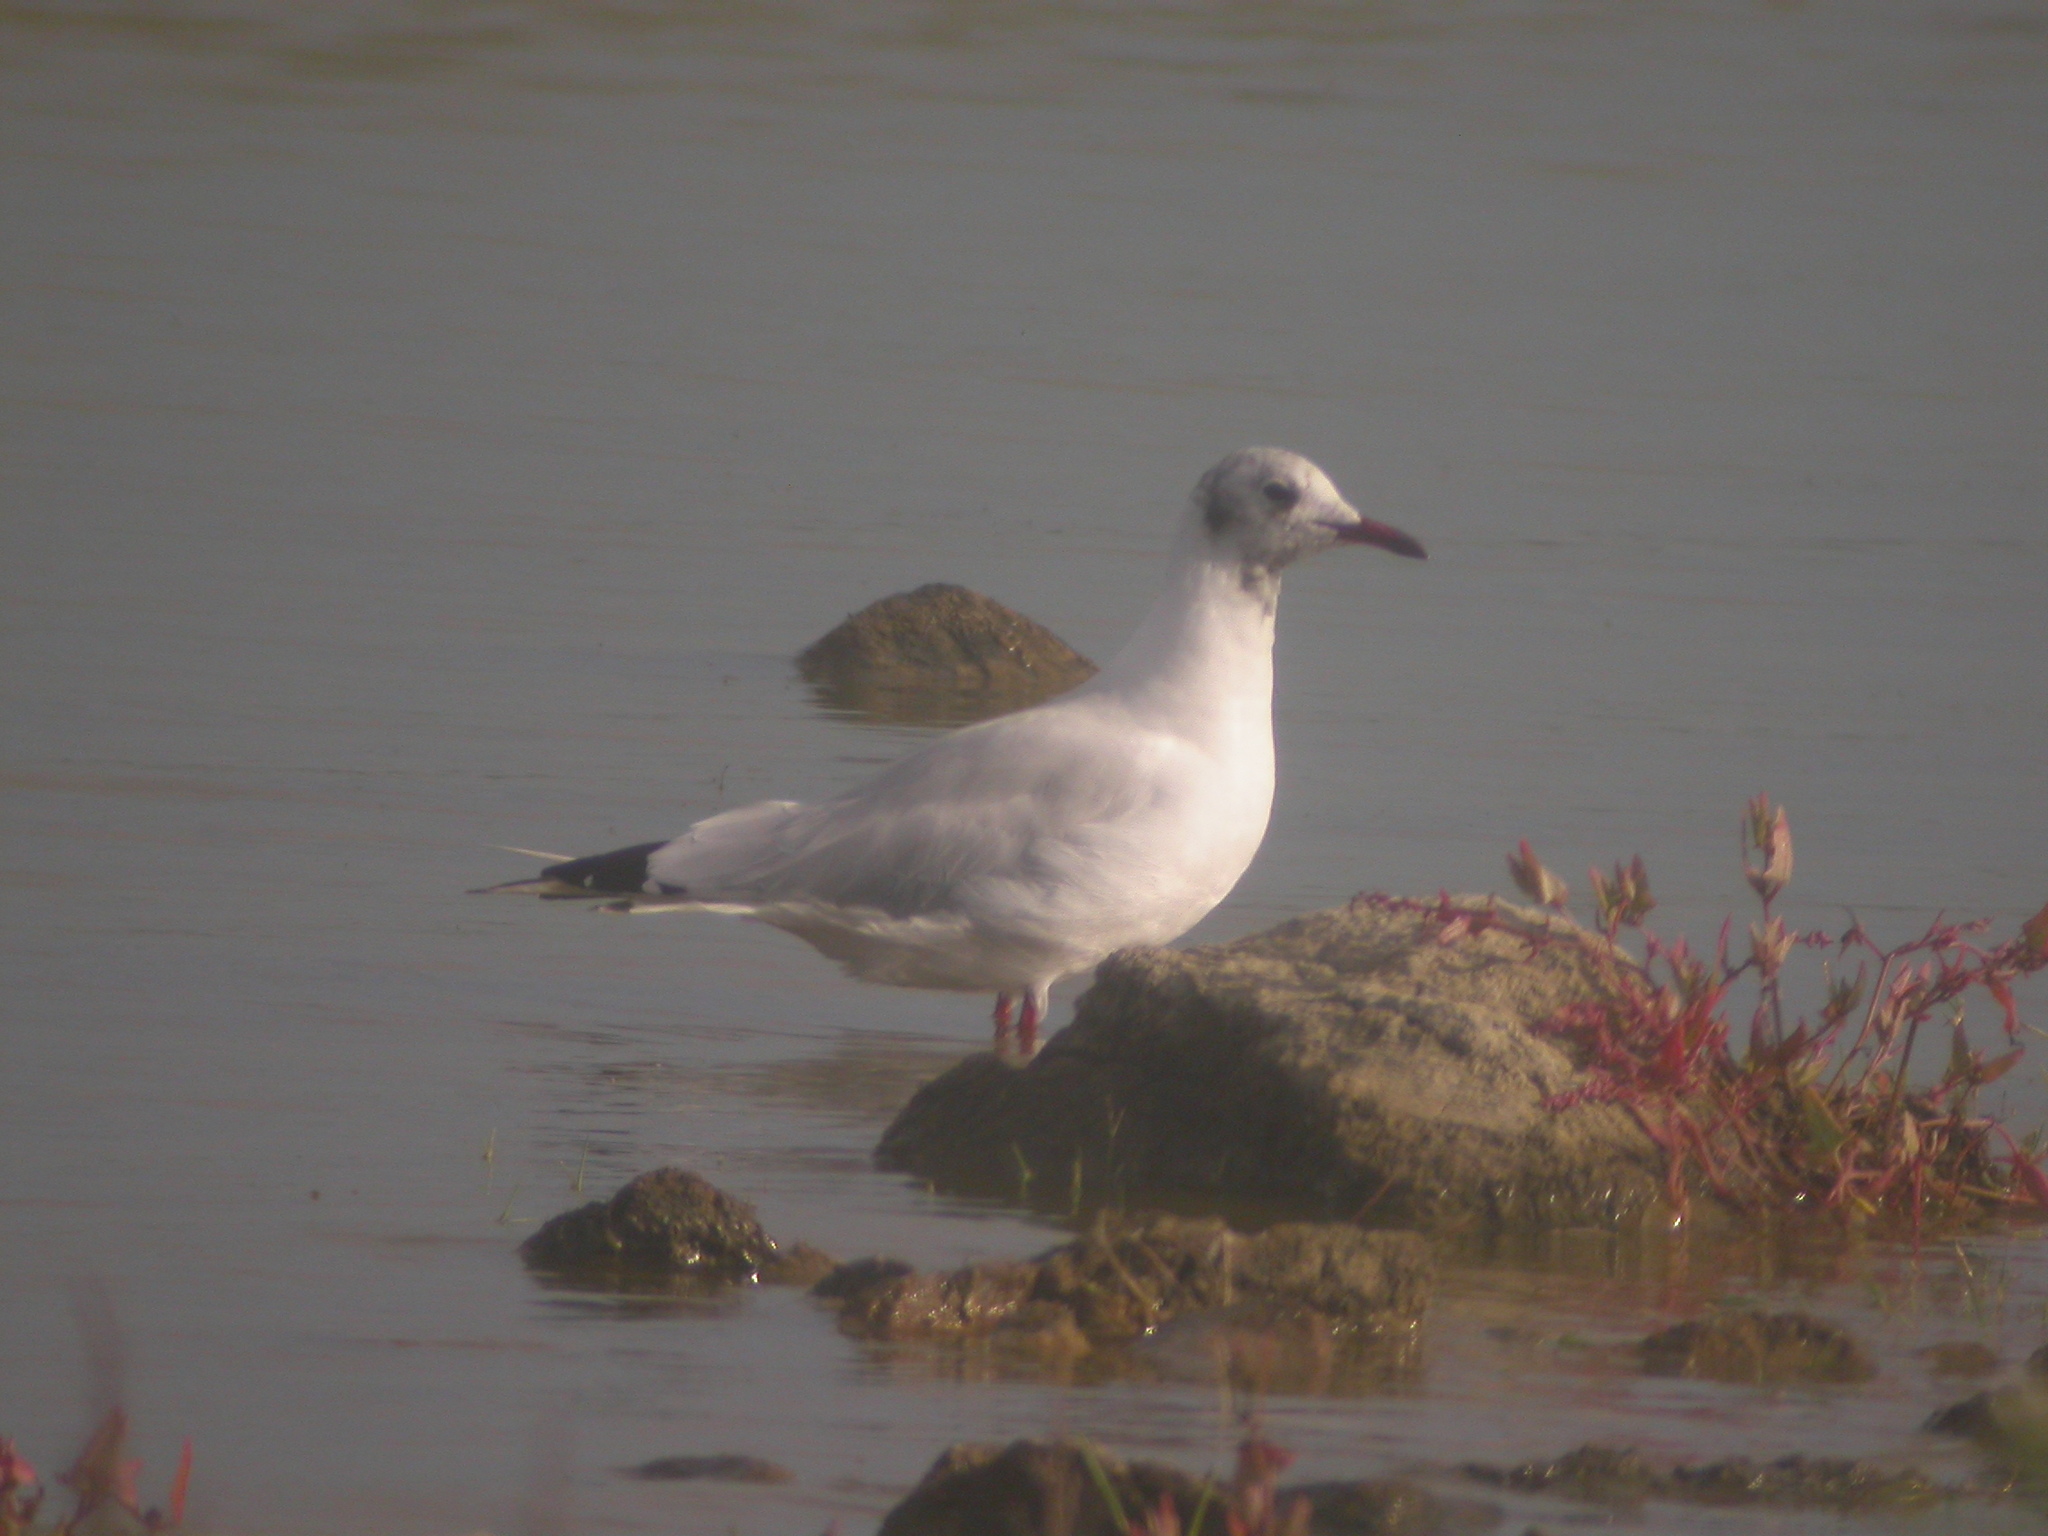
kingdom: Animalia
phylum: Chordata
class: Aves
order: Charadriiformes
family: Laridae
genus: Chroicocephalus
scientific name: Chroicocephalus ridibundus
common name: Black-headed gull
